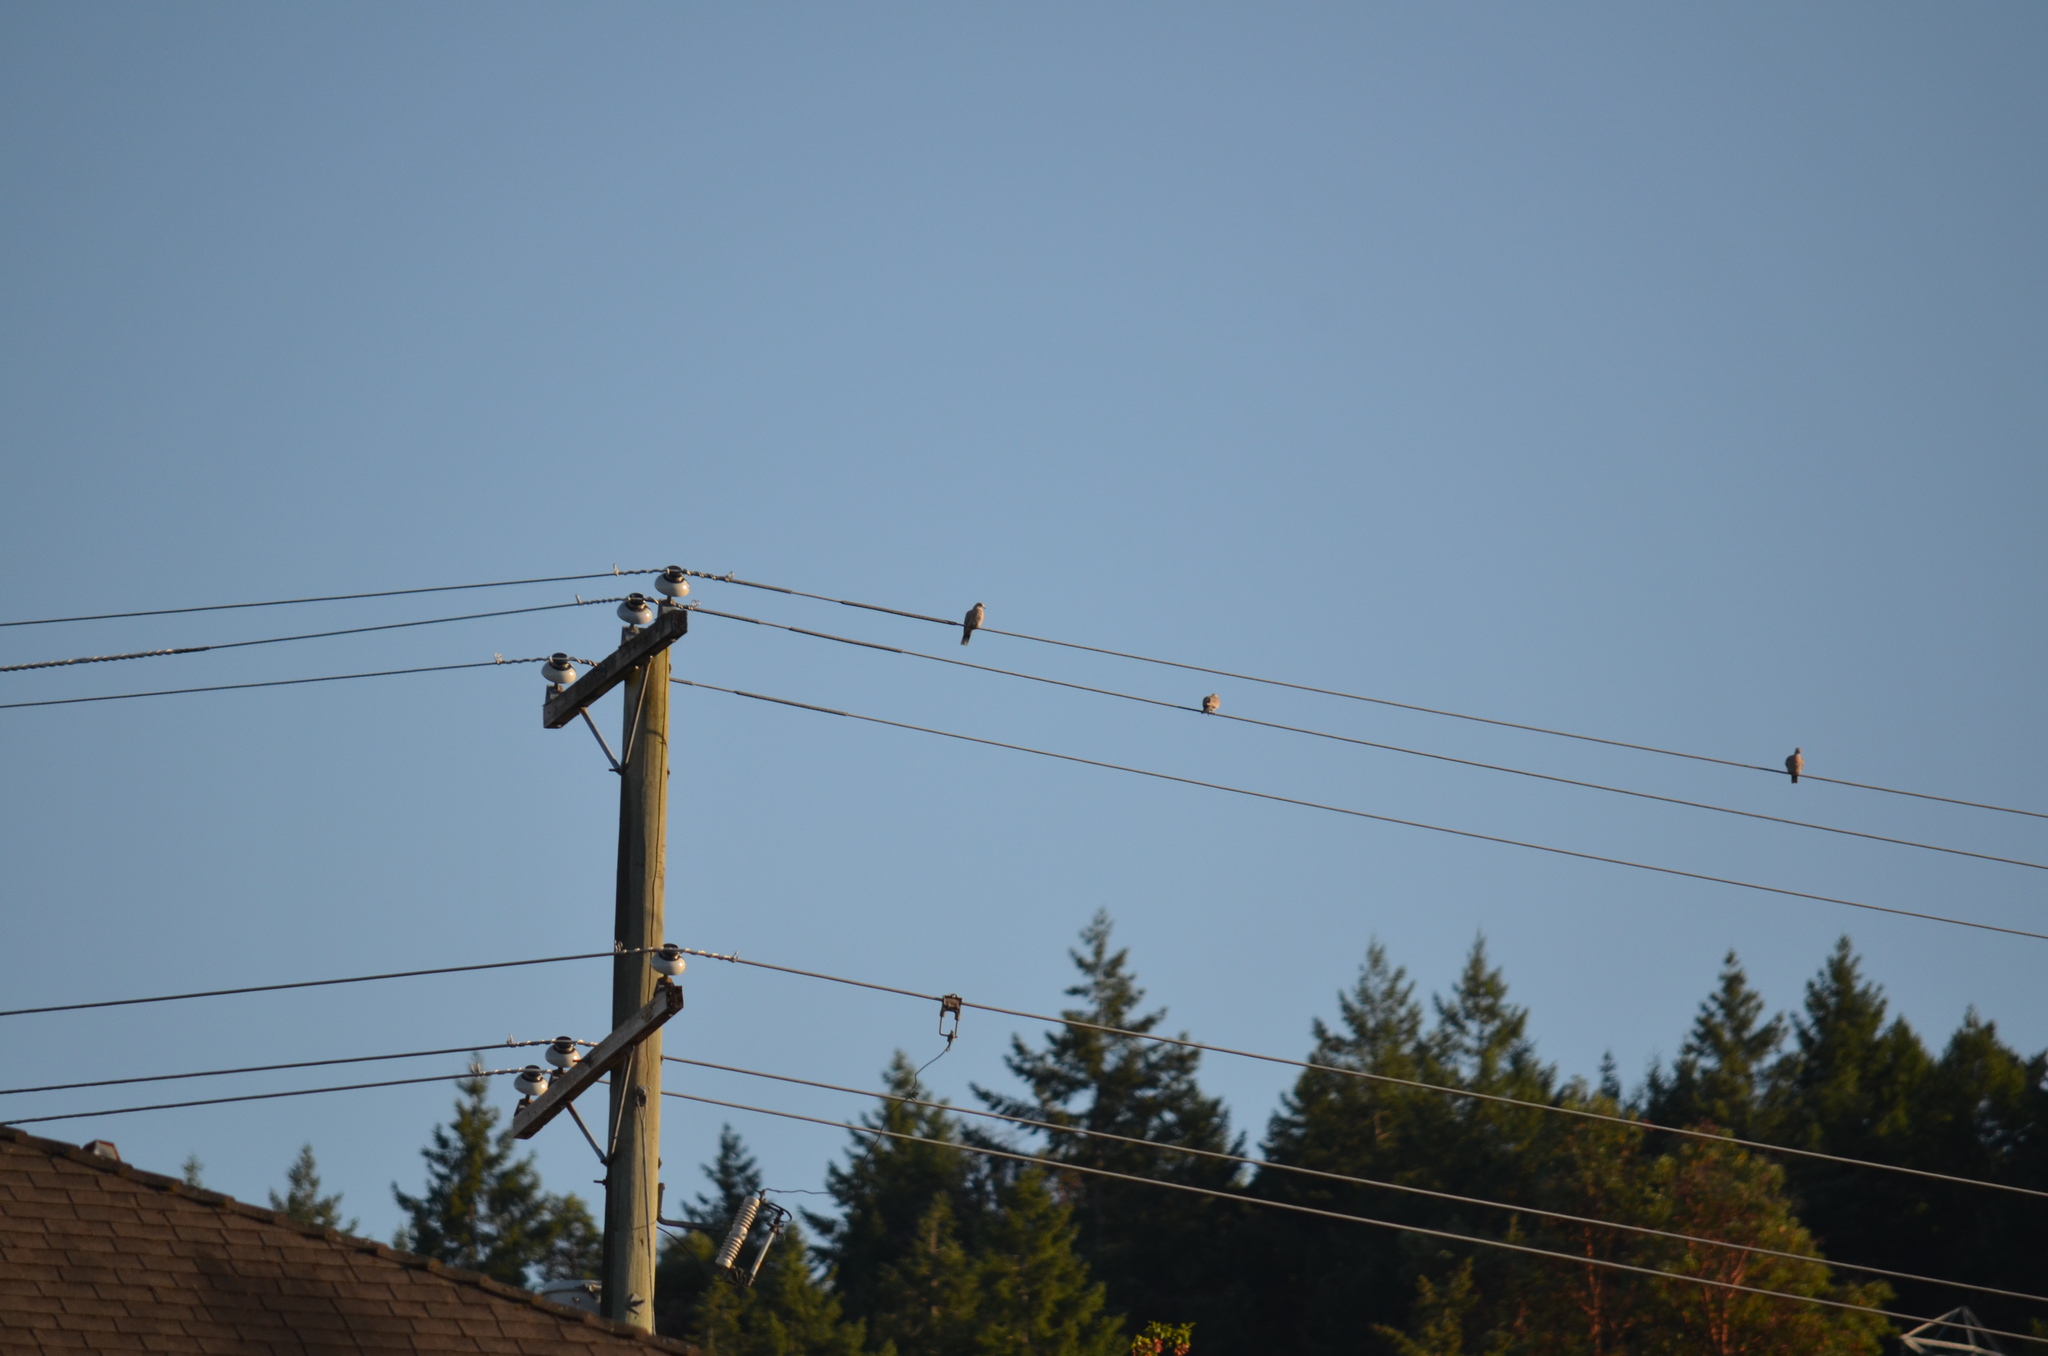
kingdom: Animalia
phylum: Chordata
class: Aves
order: Columbiformes
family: Columbidae
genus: Streptopelia
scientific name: Streptopelia decaocto
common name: Eurasian collared dove
